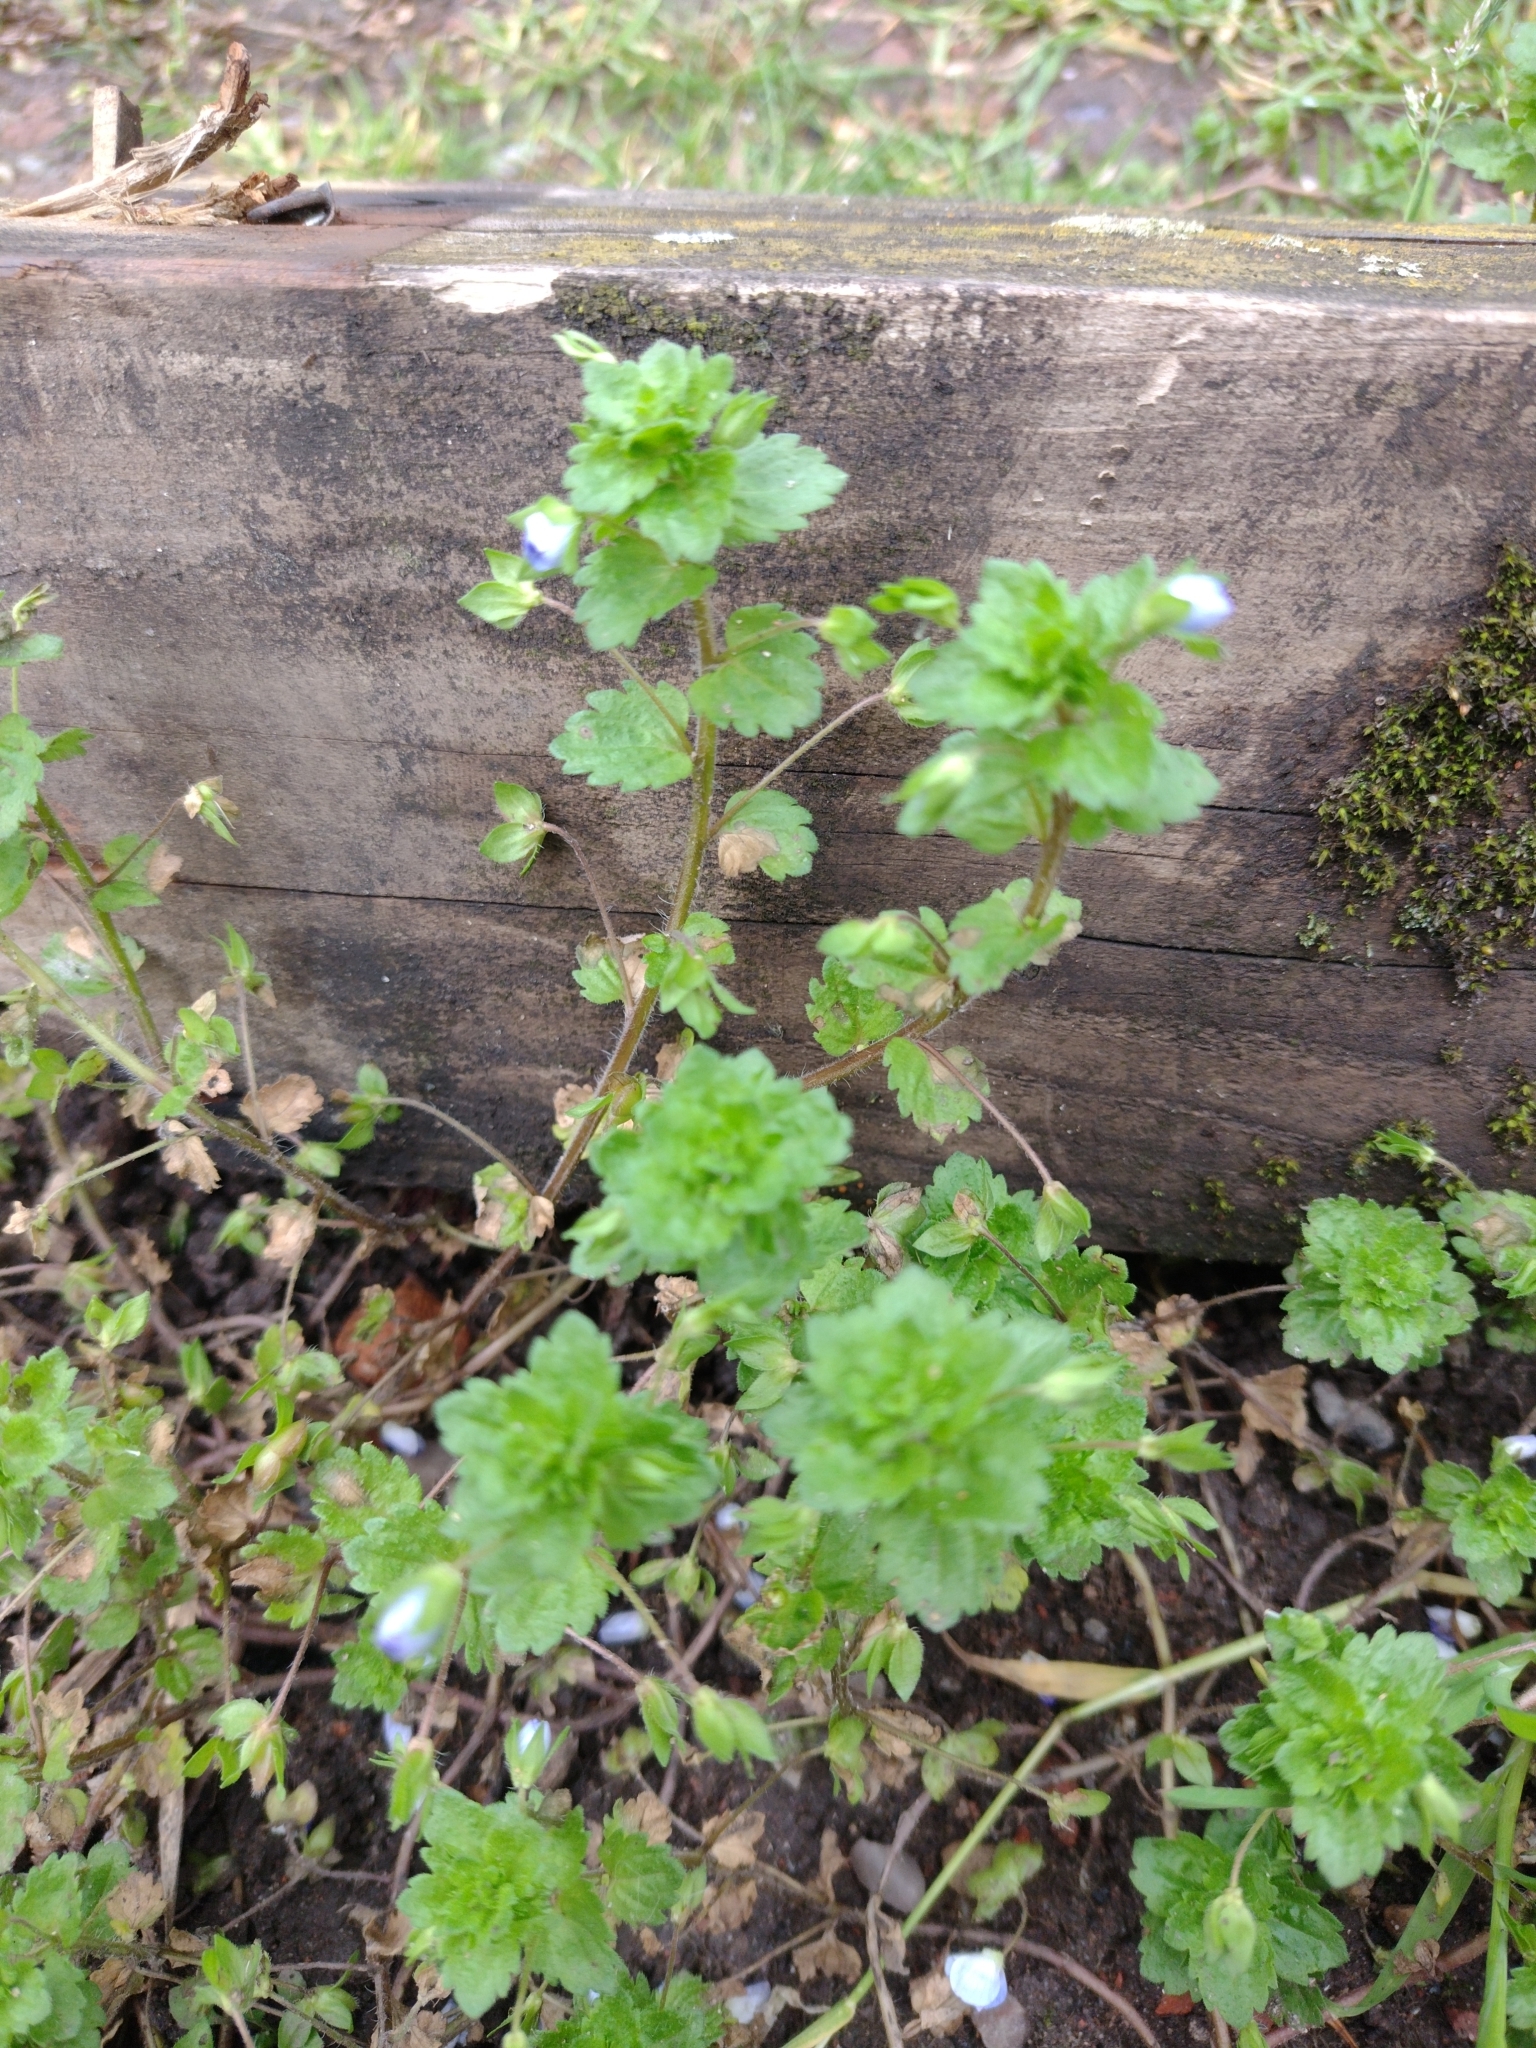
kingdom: Plantae
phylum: Tracheophyta
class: Magnoliopsida
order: Lamiales
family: Plantaginaceae
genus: Veronica
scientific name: Veronica persica
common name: Common field-speedwell
